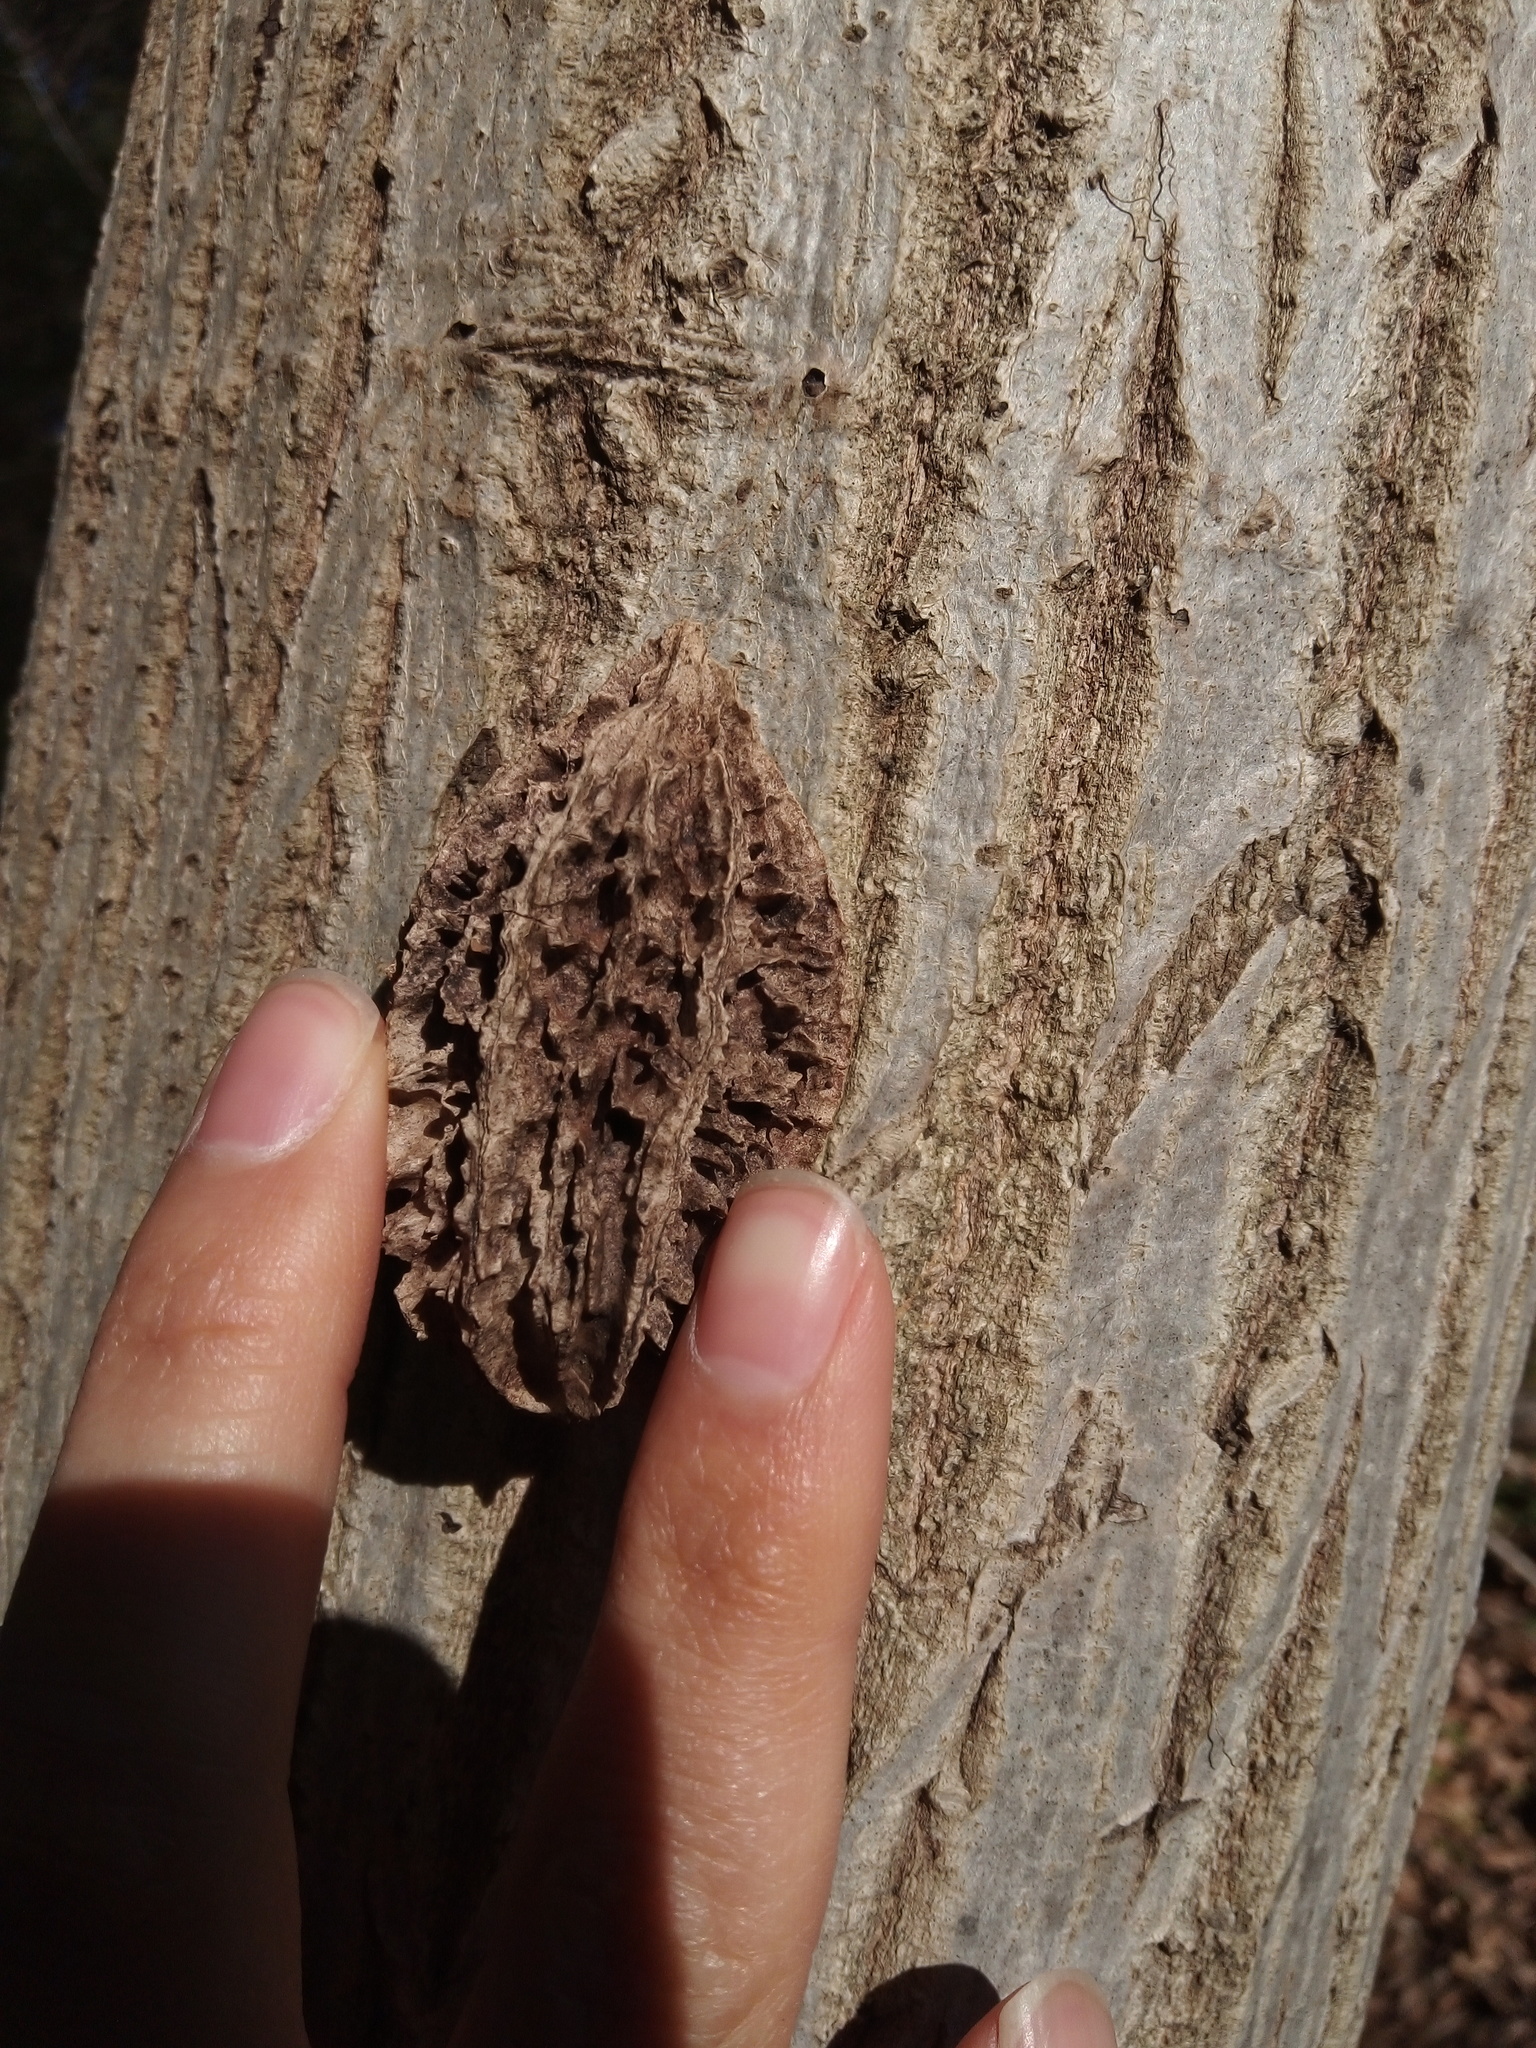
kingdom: Plantae
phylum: Tracheophyta
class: Magnoliopsida
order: Fagales
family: Juglandaceae
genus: Juglans
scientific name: Juglans bixbyi
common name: Bixby's walnut
